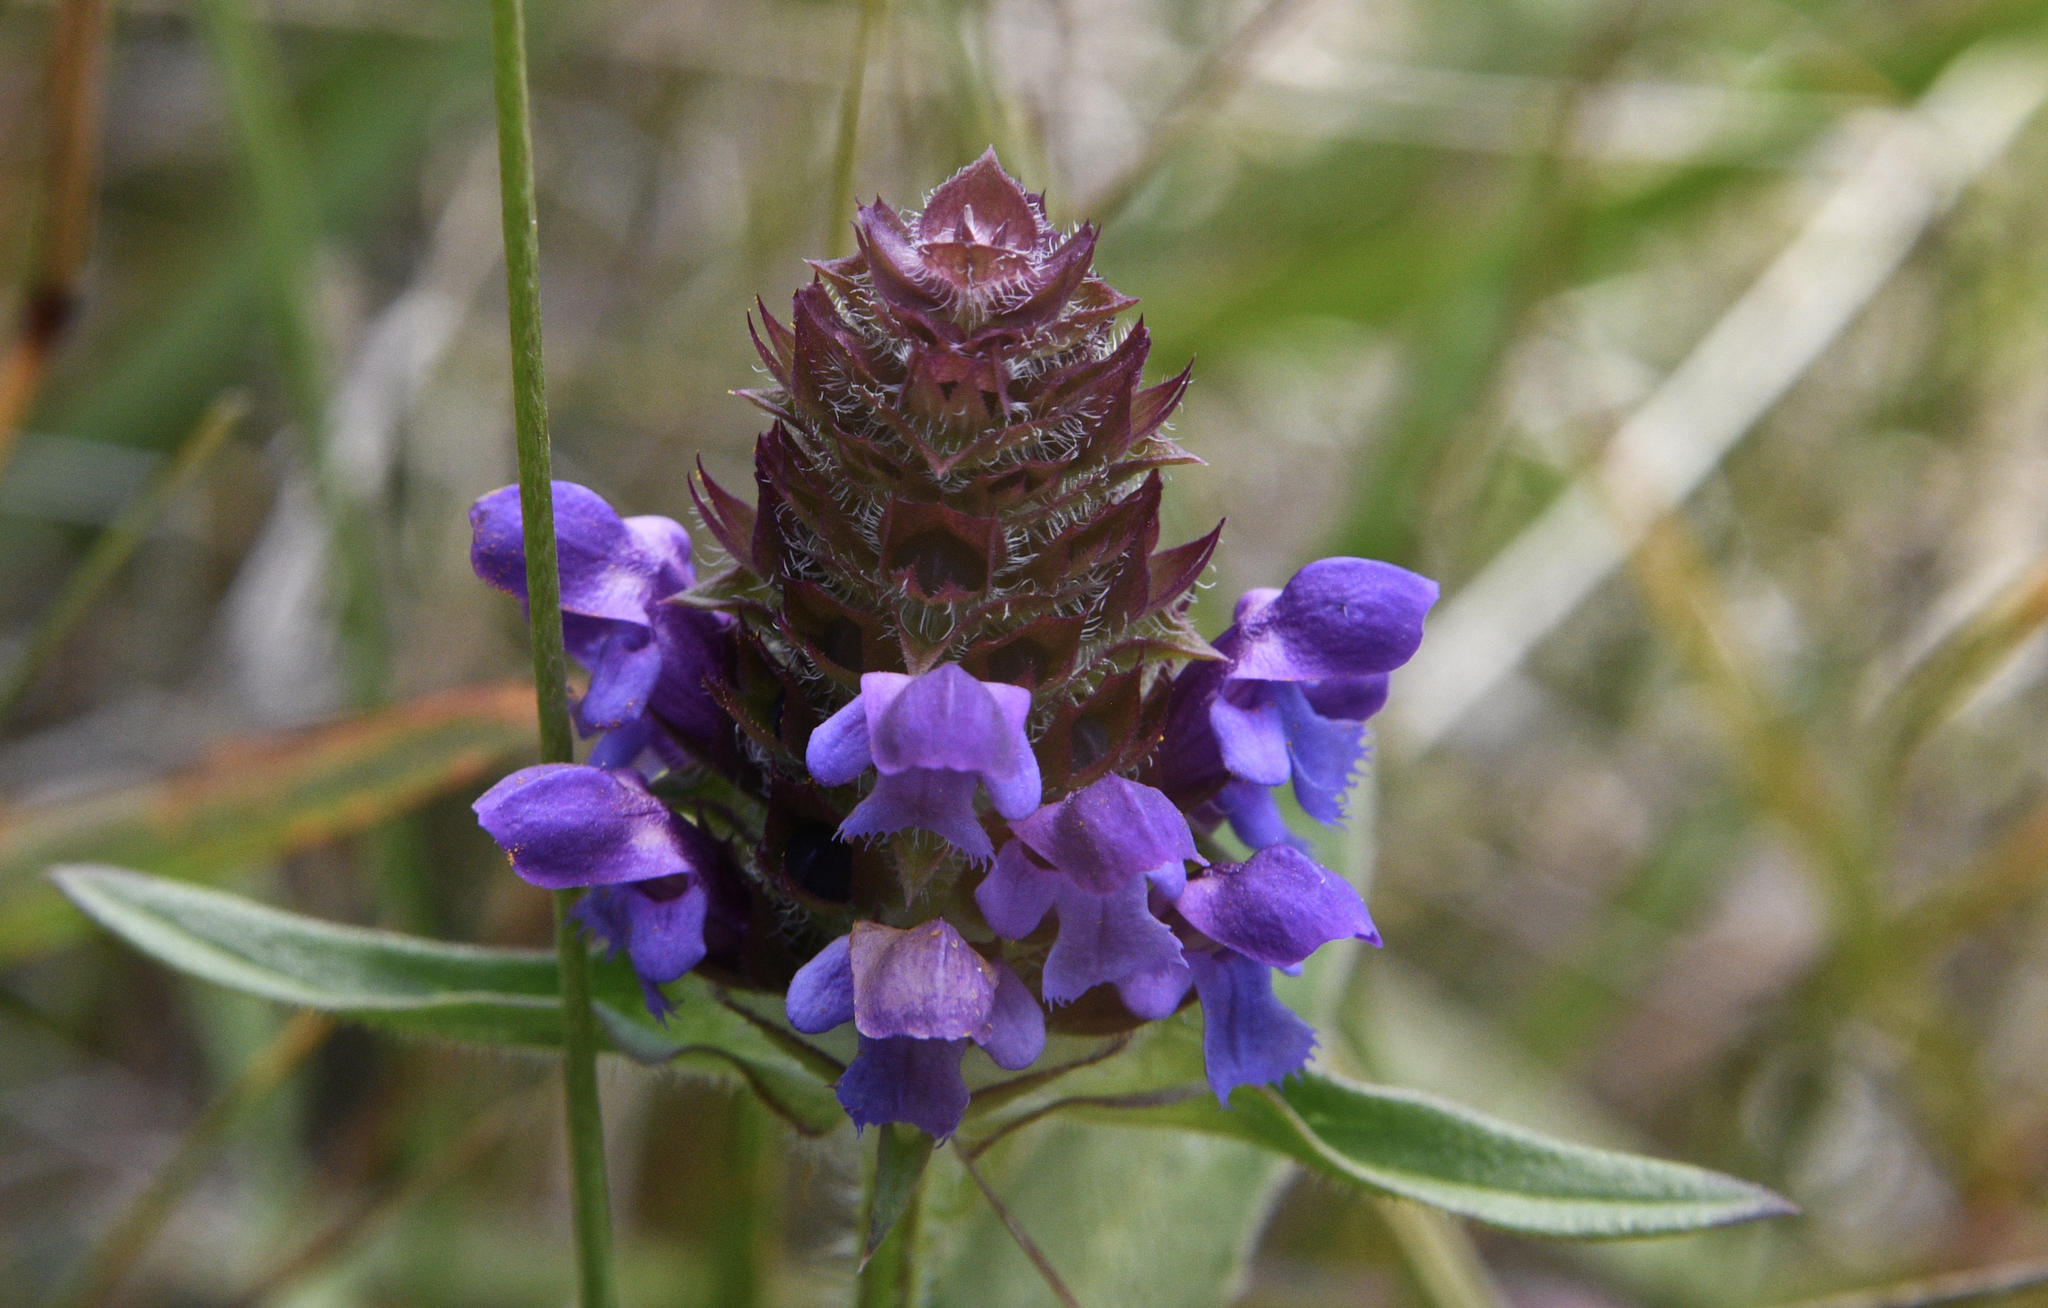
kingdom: Plantae
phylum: Tracheophyta
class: Magnoliopsida
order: Lamiales
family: Lamiaceae
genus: Prunella
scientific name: Prunella vulgaris
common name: Heal-all
